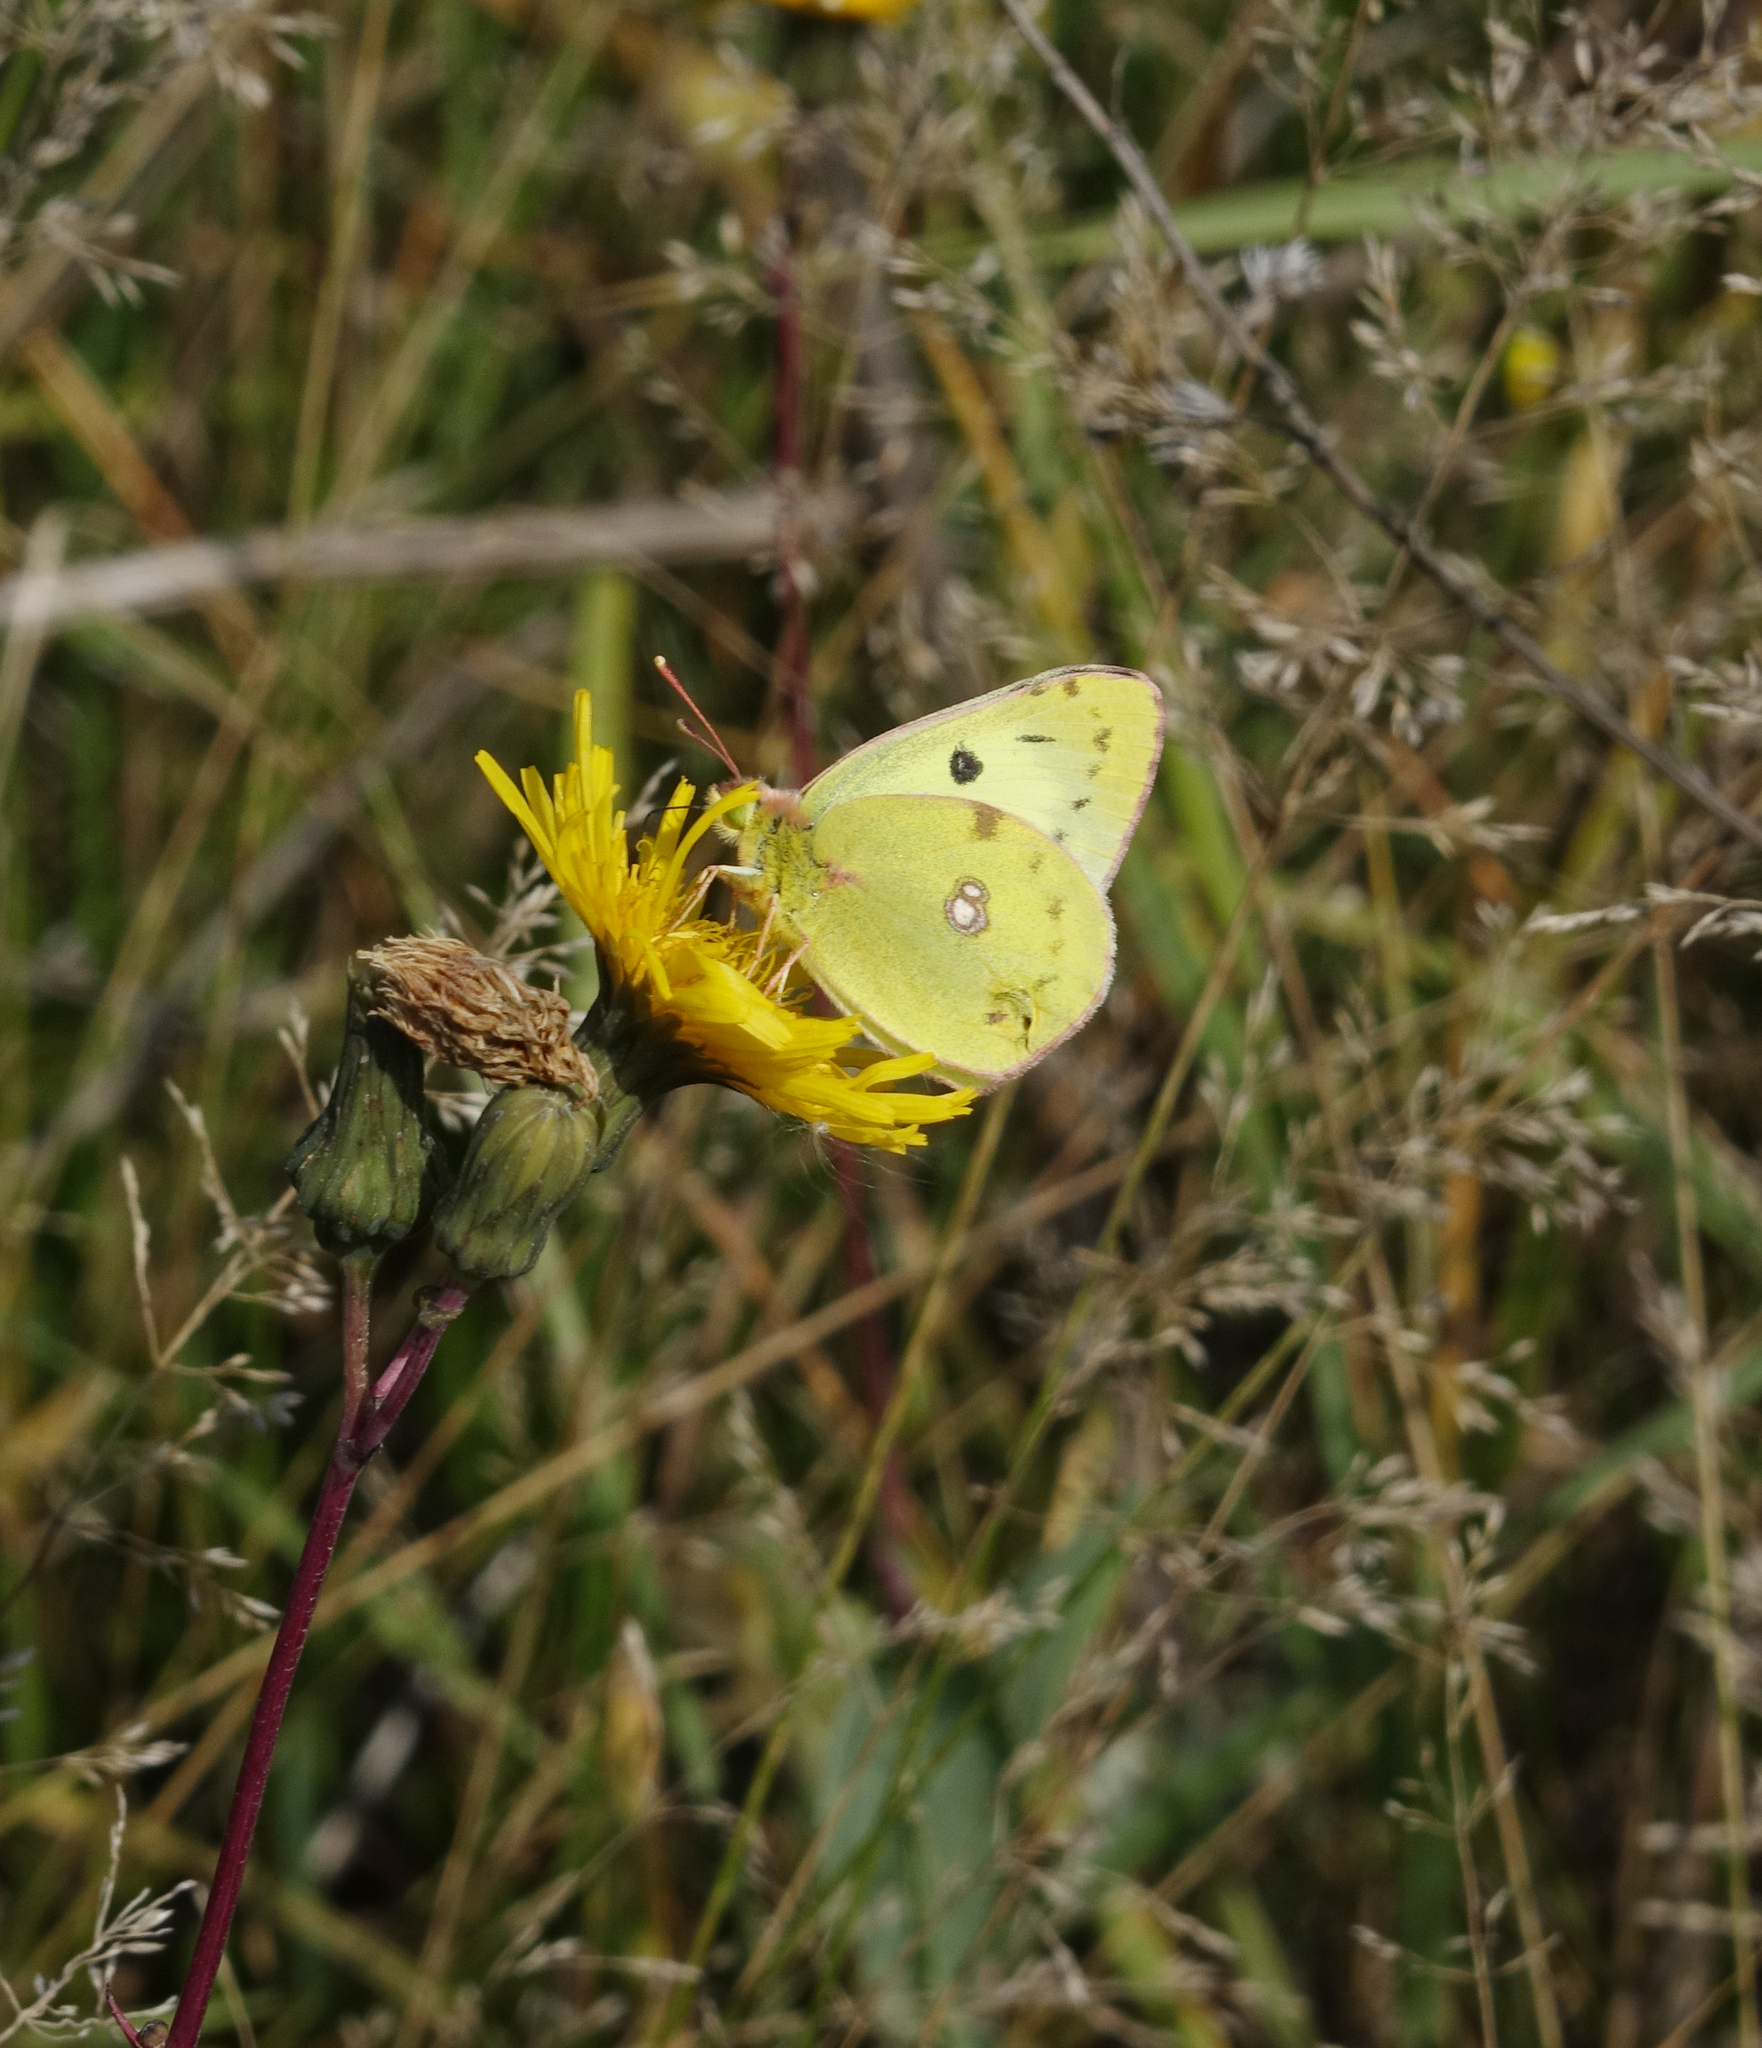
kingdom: Plantae
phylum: Tracheophyta
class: Magnoliopsida
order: Asterales
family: Asteraceae
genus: Sonchus
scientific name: Sonchus arvensis
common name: Perennial sow-thistle
